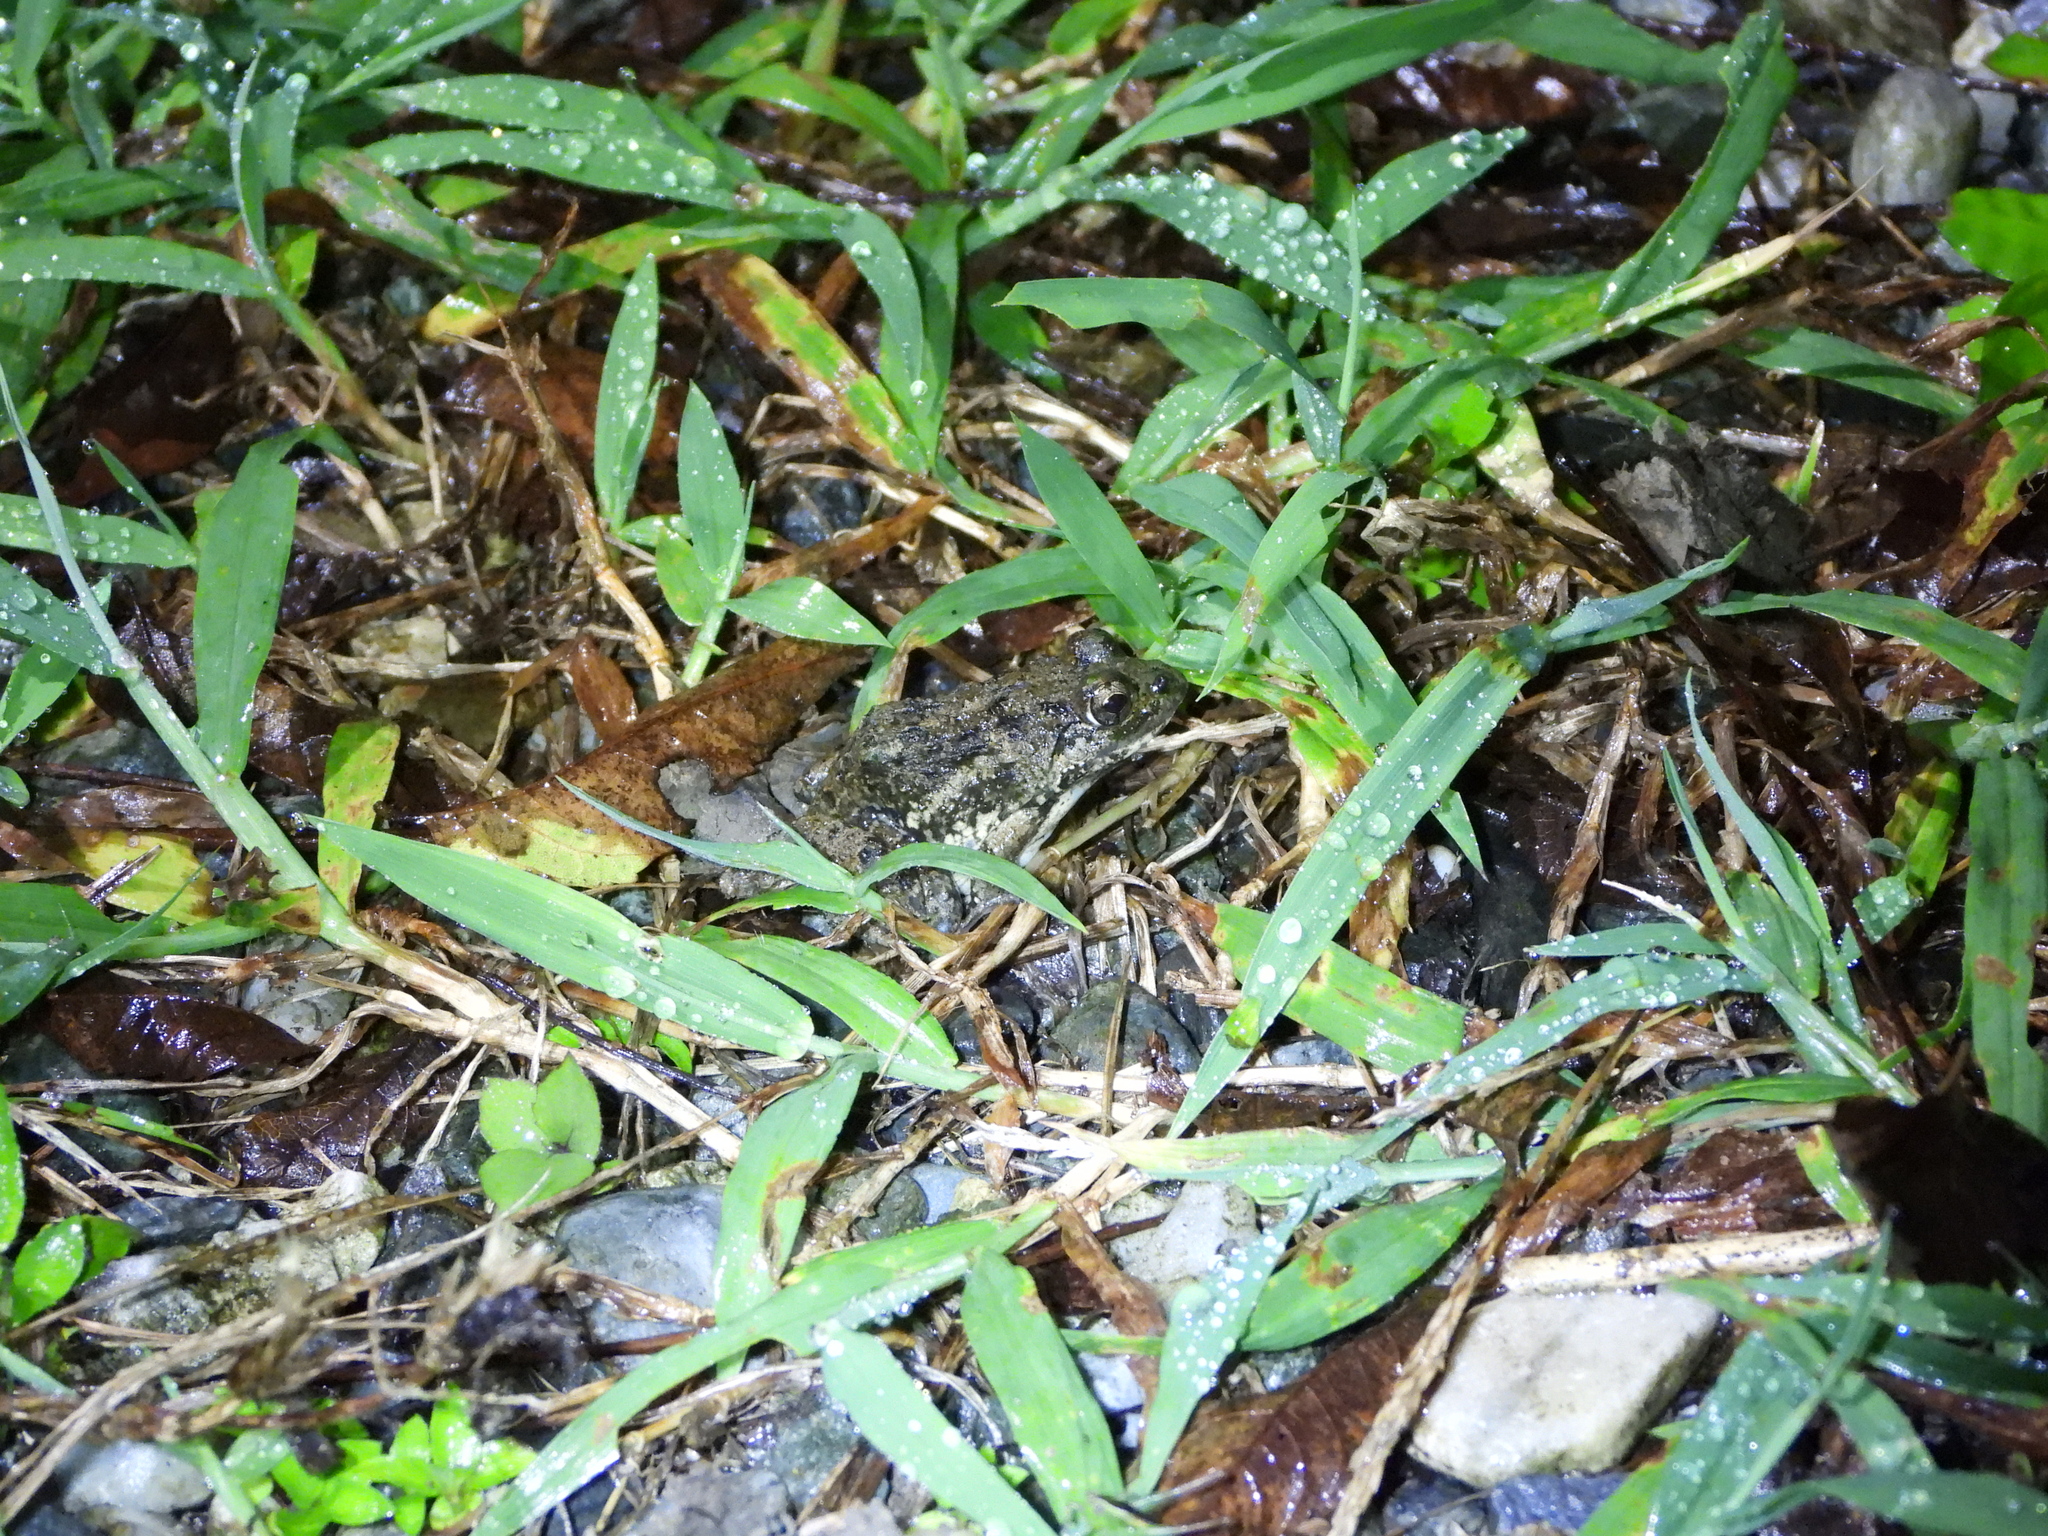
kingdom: Animalia
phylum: Chordata
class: Amphibia
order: Anura
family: Dicroglossidae
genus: Fejervarya
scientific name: Fejervarya limnocharis
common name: Asian grass frog/common pond frog/field frog/grass frog/indian rice frog
